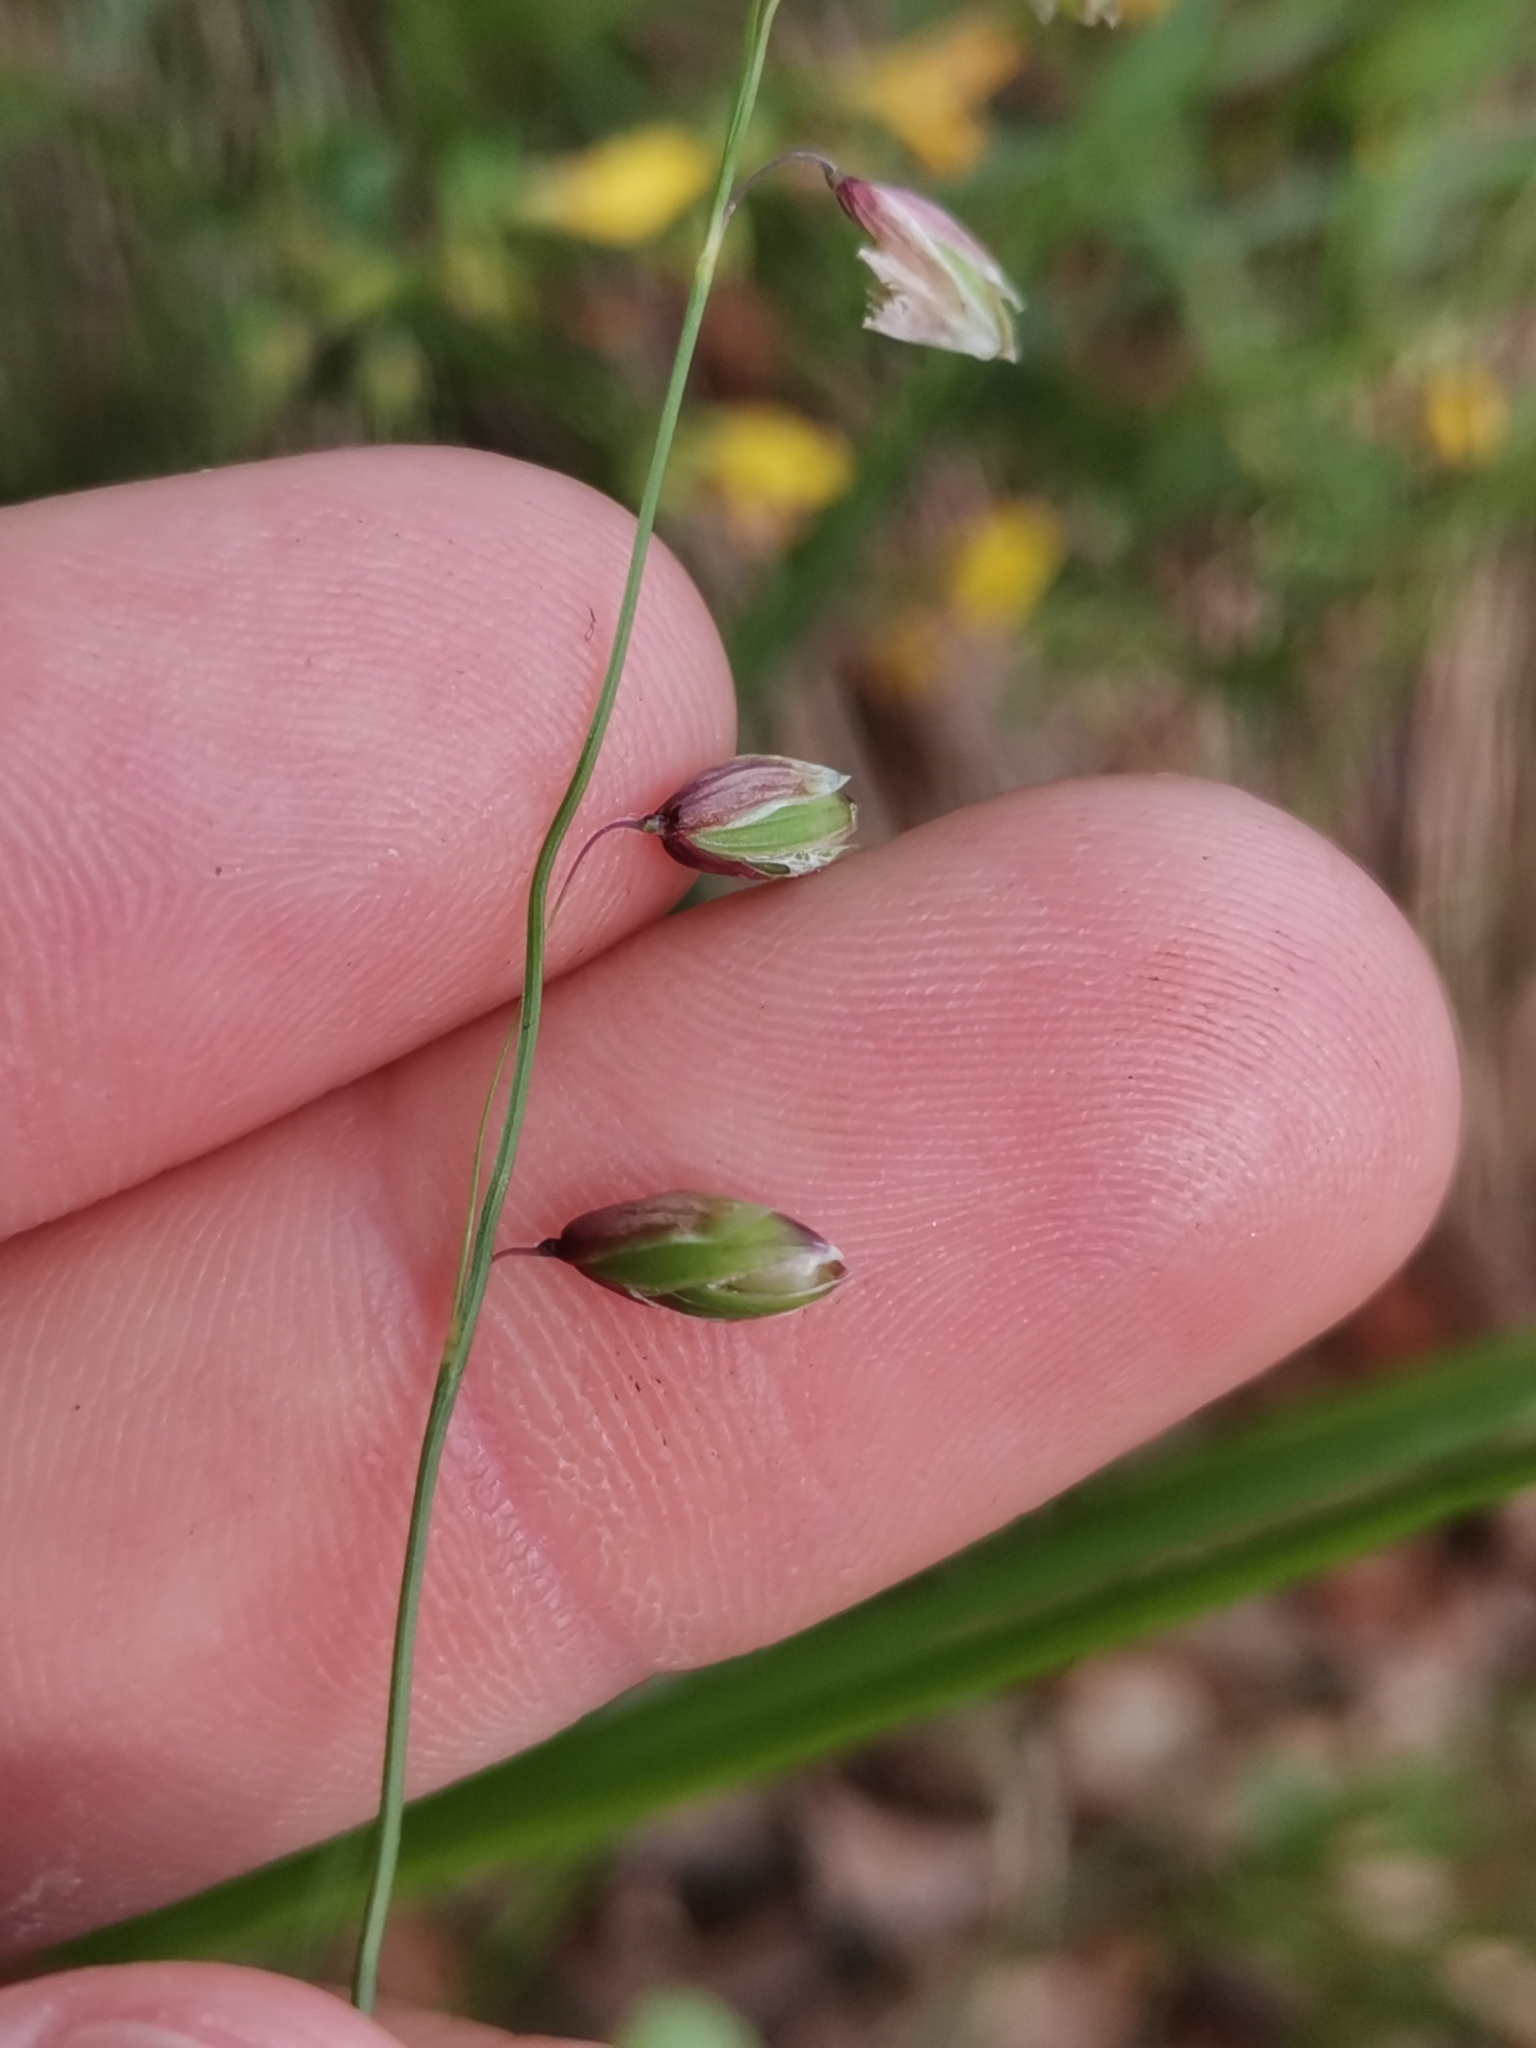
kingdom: Plantae
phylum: Tracheophyta
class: Liliopsida
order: Poales
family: Poaceae
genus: Melica
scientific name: Melica nutans
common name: Mountain melick
